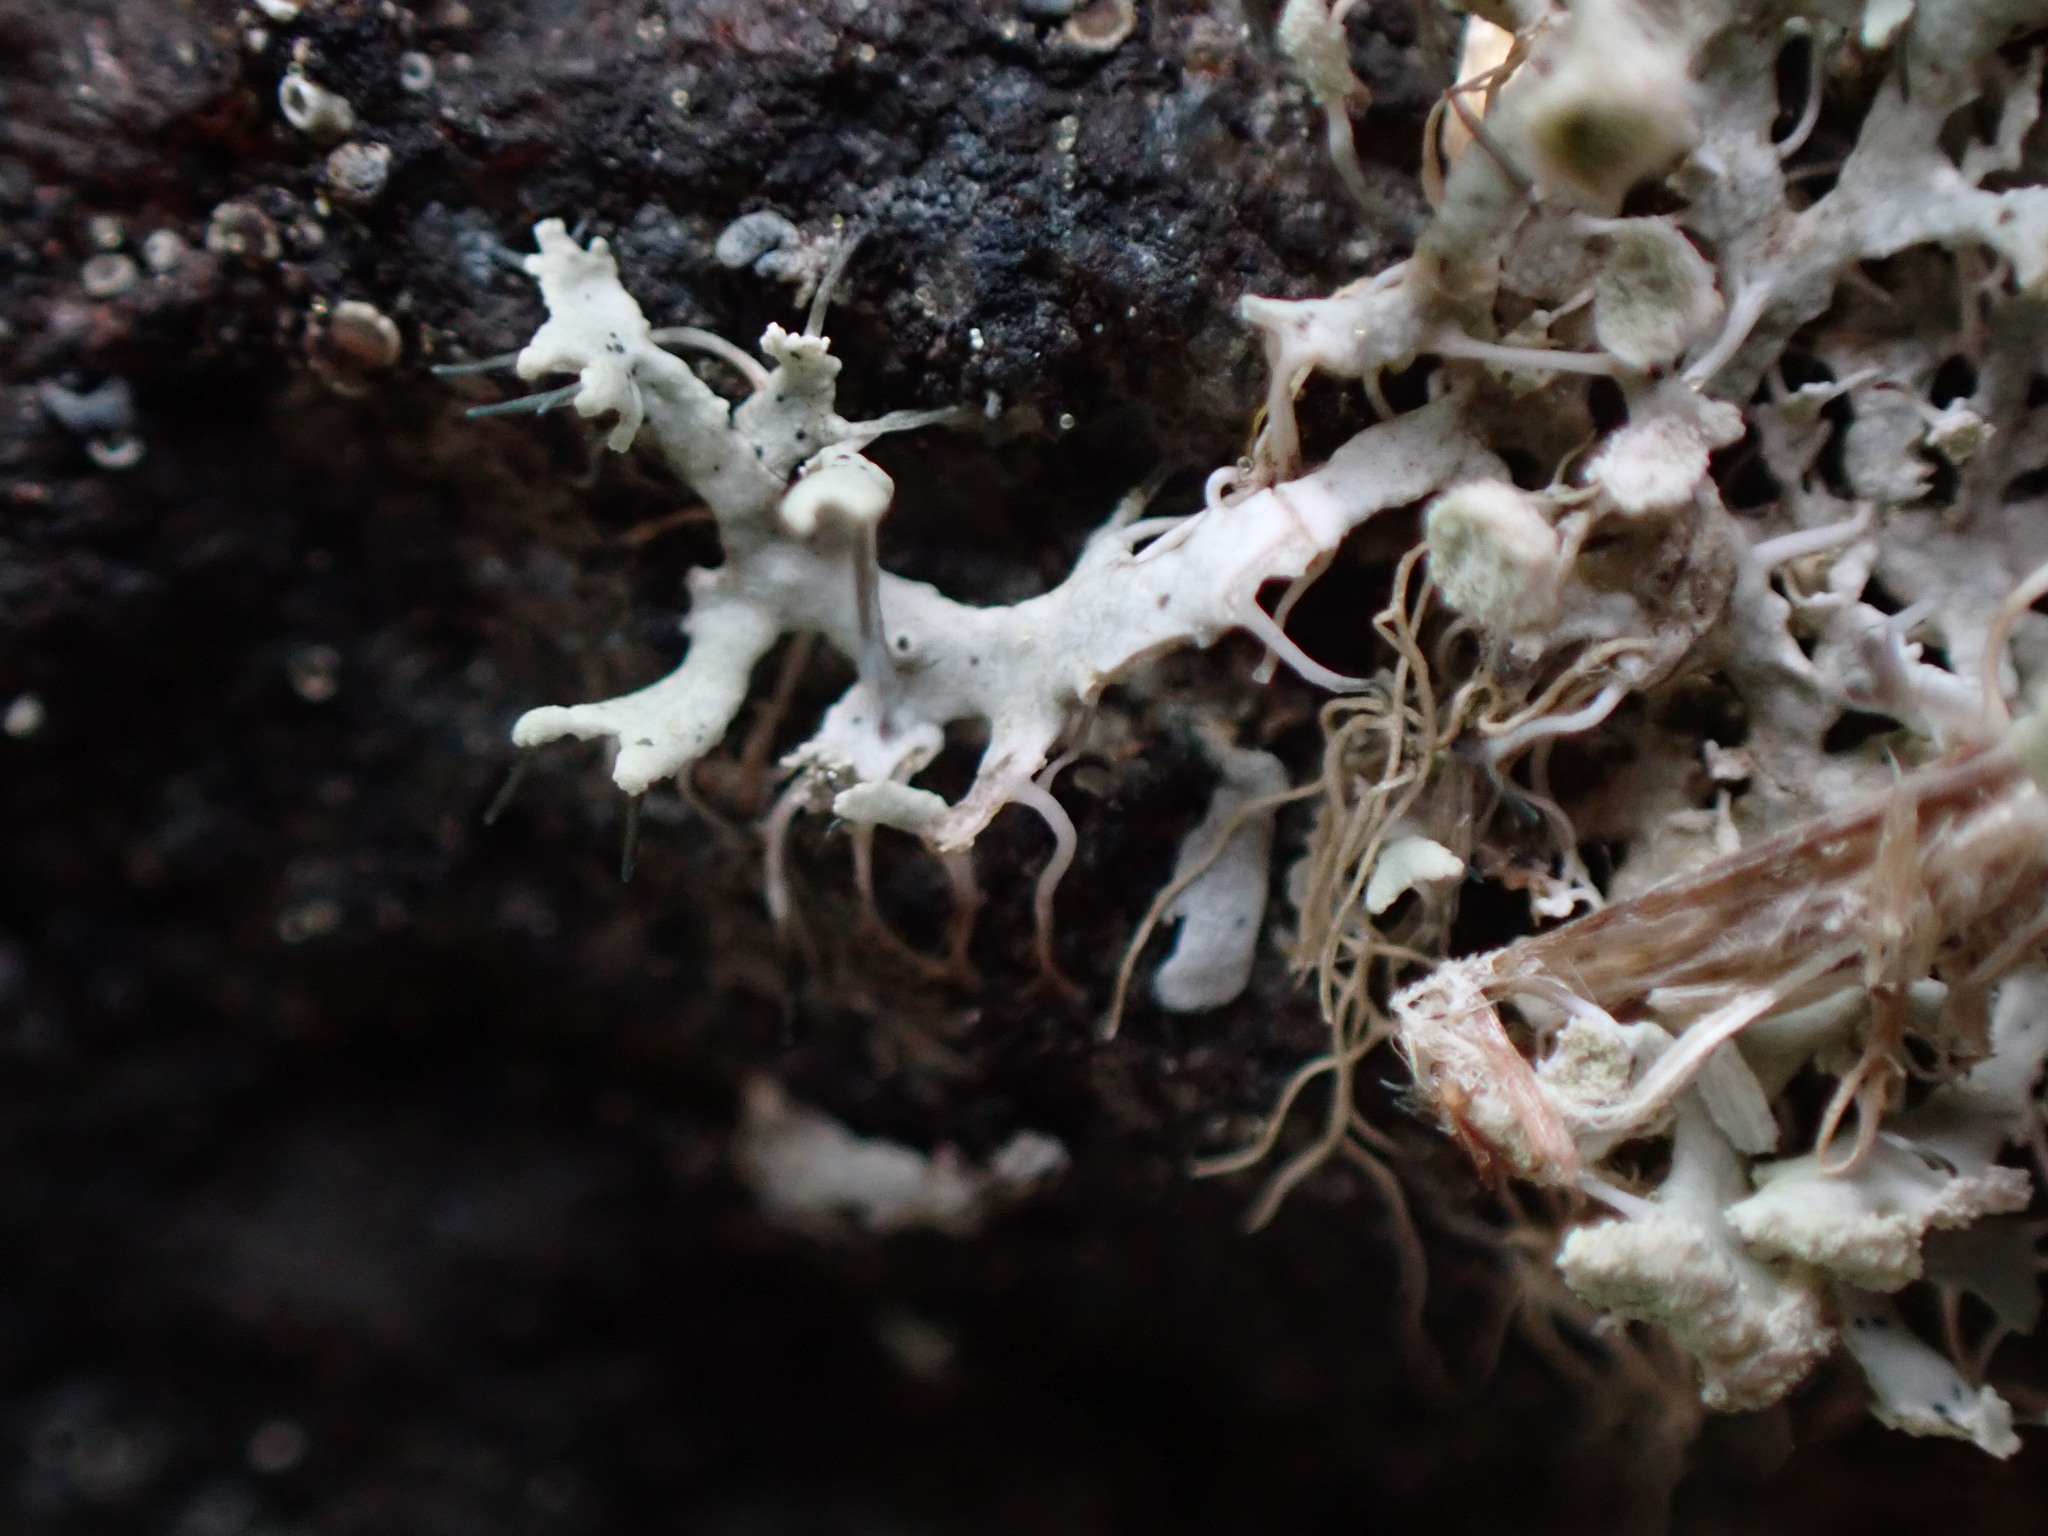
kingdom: Fungi
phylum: Ascomycota
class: Lecanoromycetes
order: Caliciales
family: Physciaceae
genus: Physcia
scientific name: Physcia tenella
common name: Fringed rosette lichen
